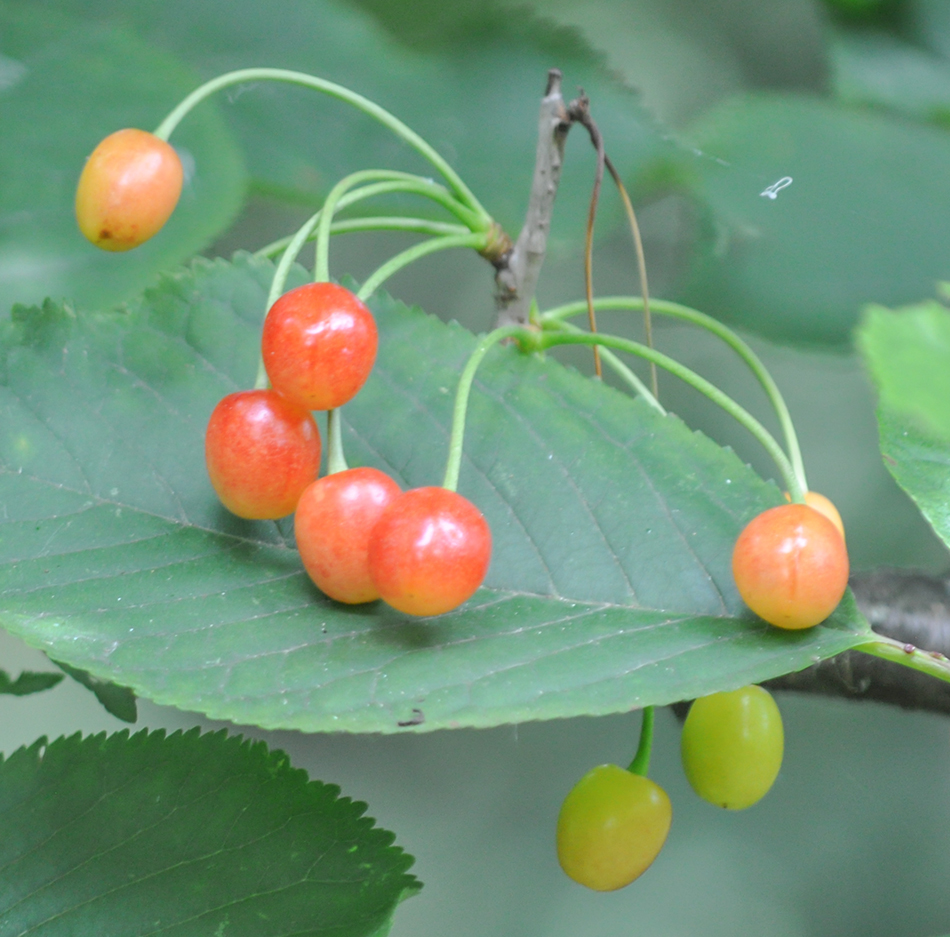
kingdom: Plantae
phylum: Tracheophyta
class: Magnoliopsida
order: Rosales
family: Rosaceae
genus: Prunus
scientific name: Prunus avium
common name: Sweet cherry
